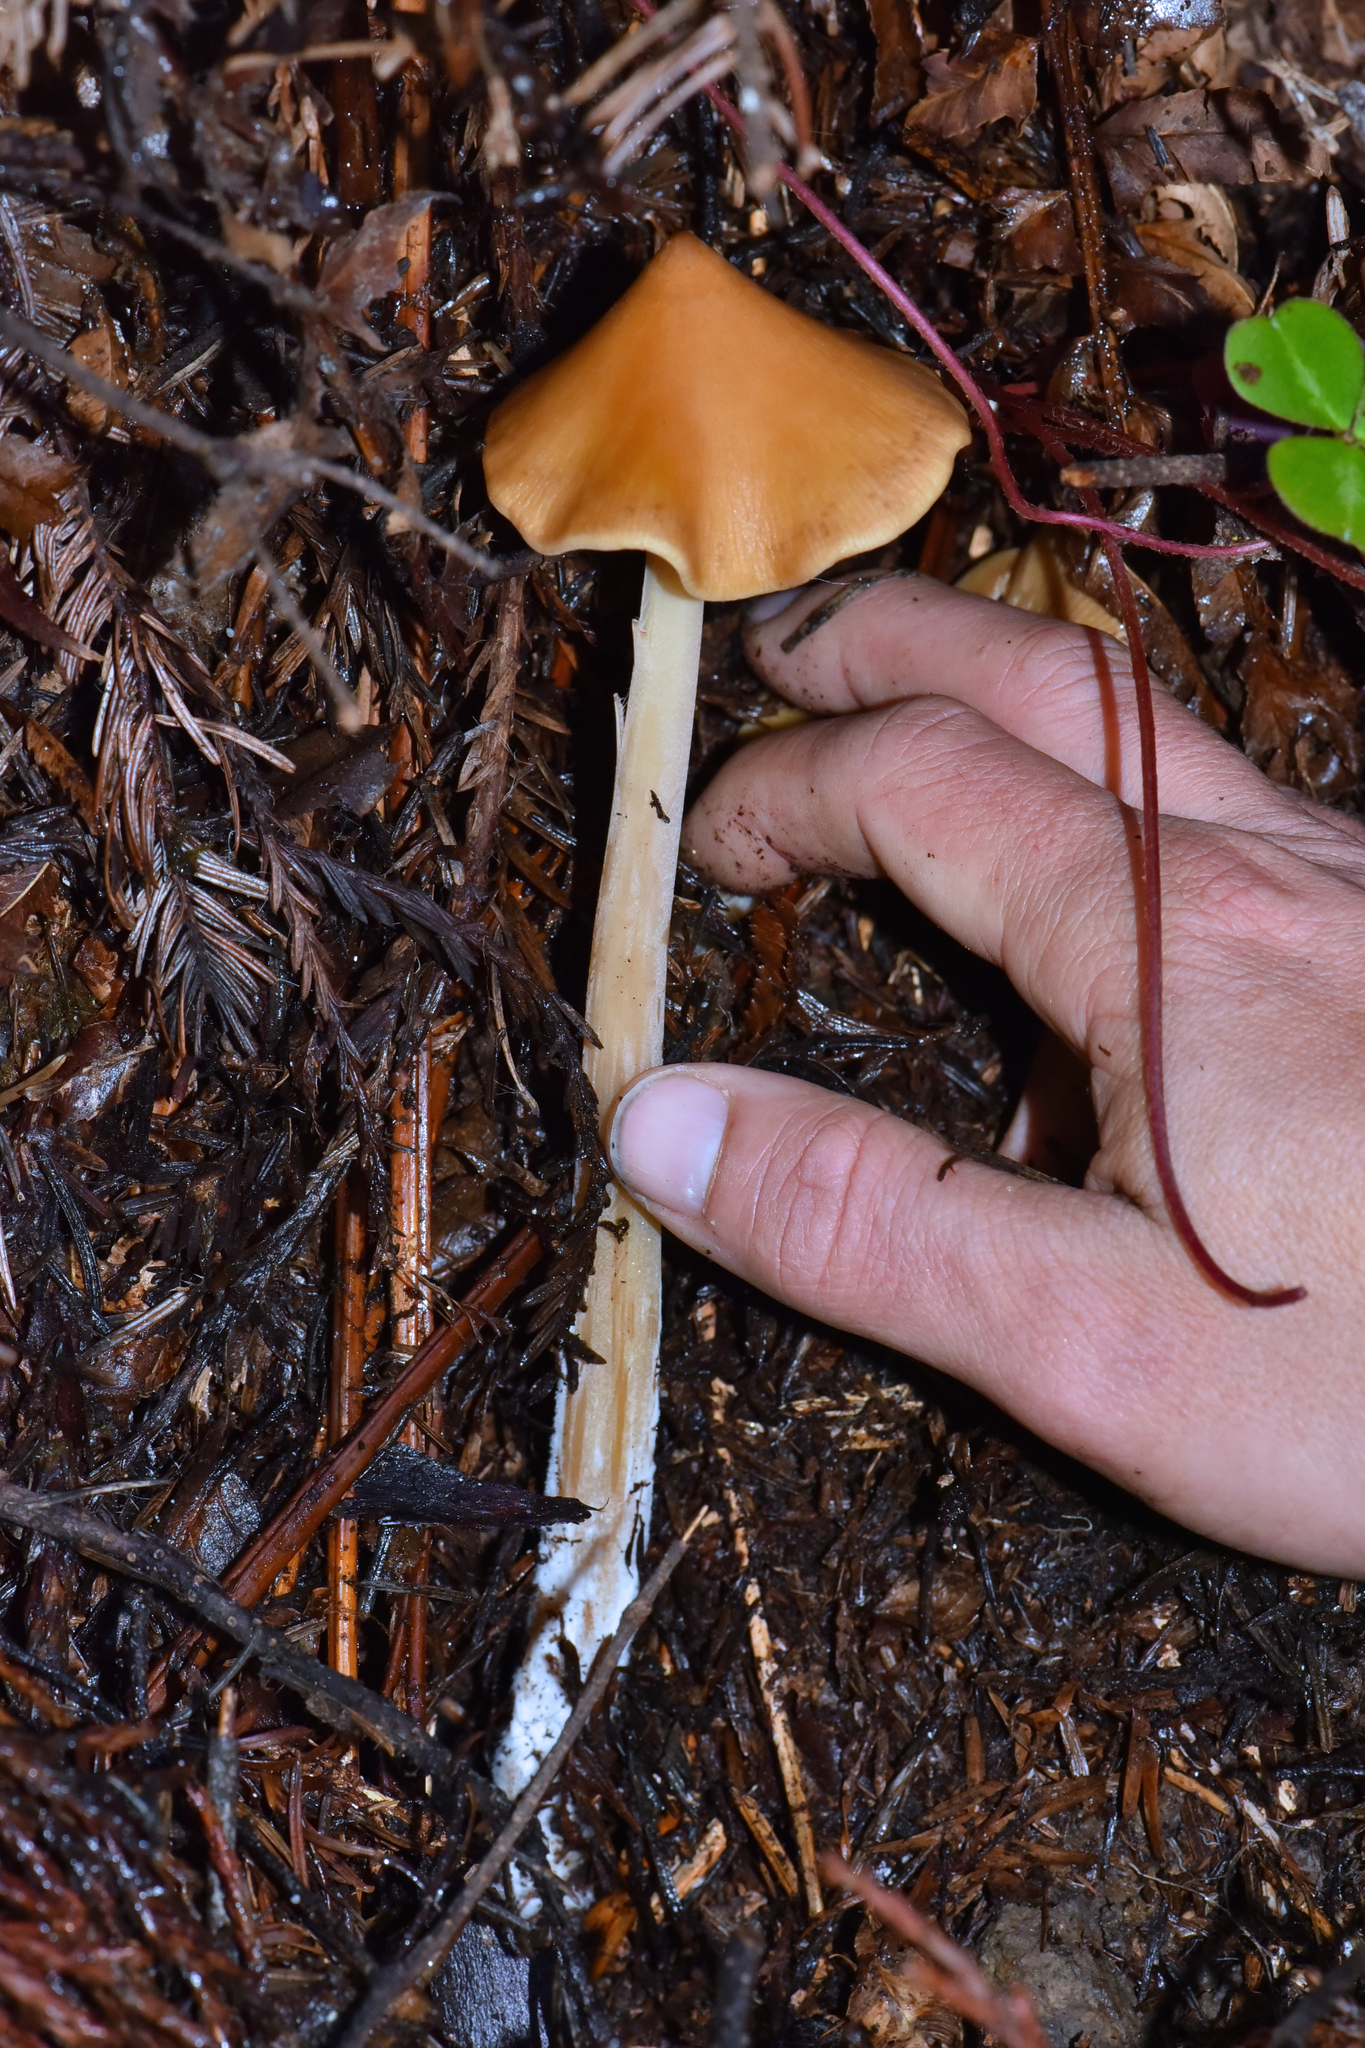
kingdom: Fungi
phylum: Basidiomycota
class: Agaricomycetes
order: Agaricales
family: Tricholomataceae
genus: Caulorhiza
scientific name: Caulorhiza umbonata
